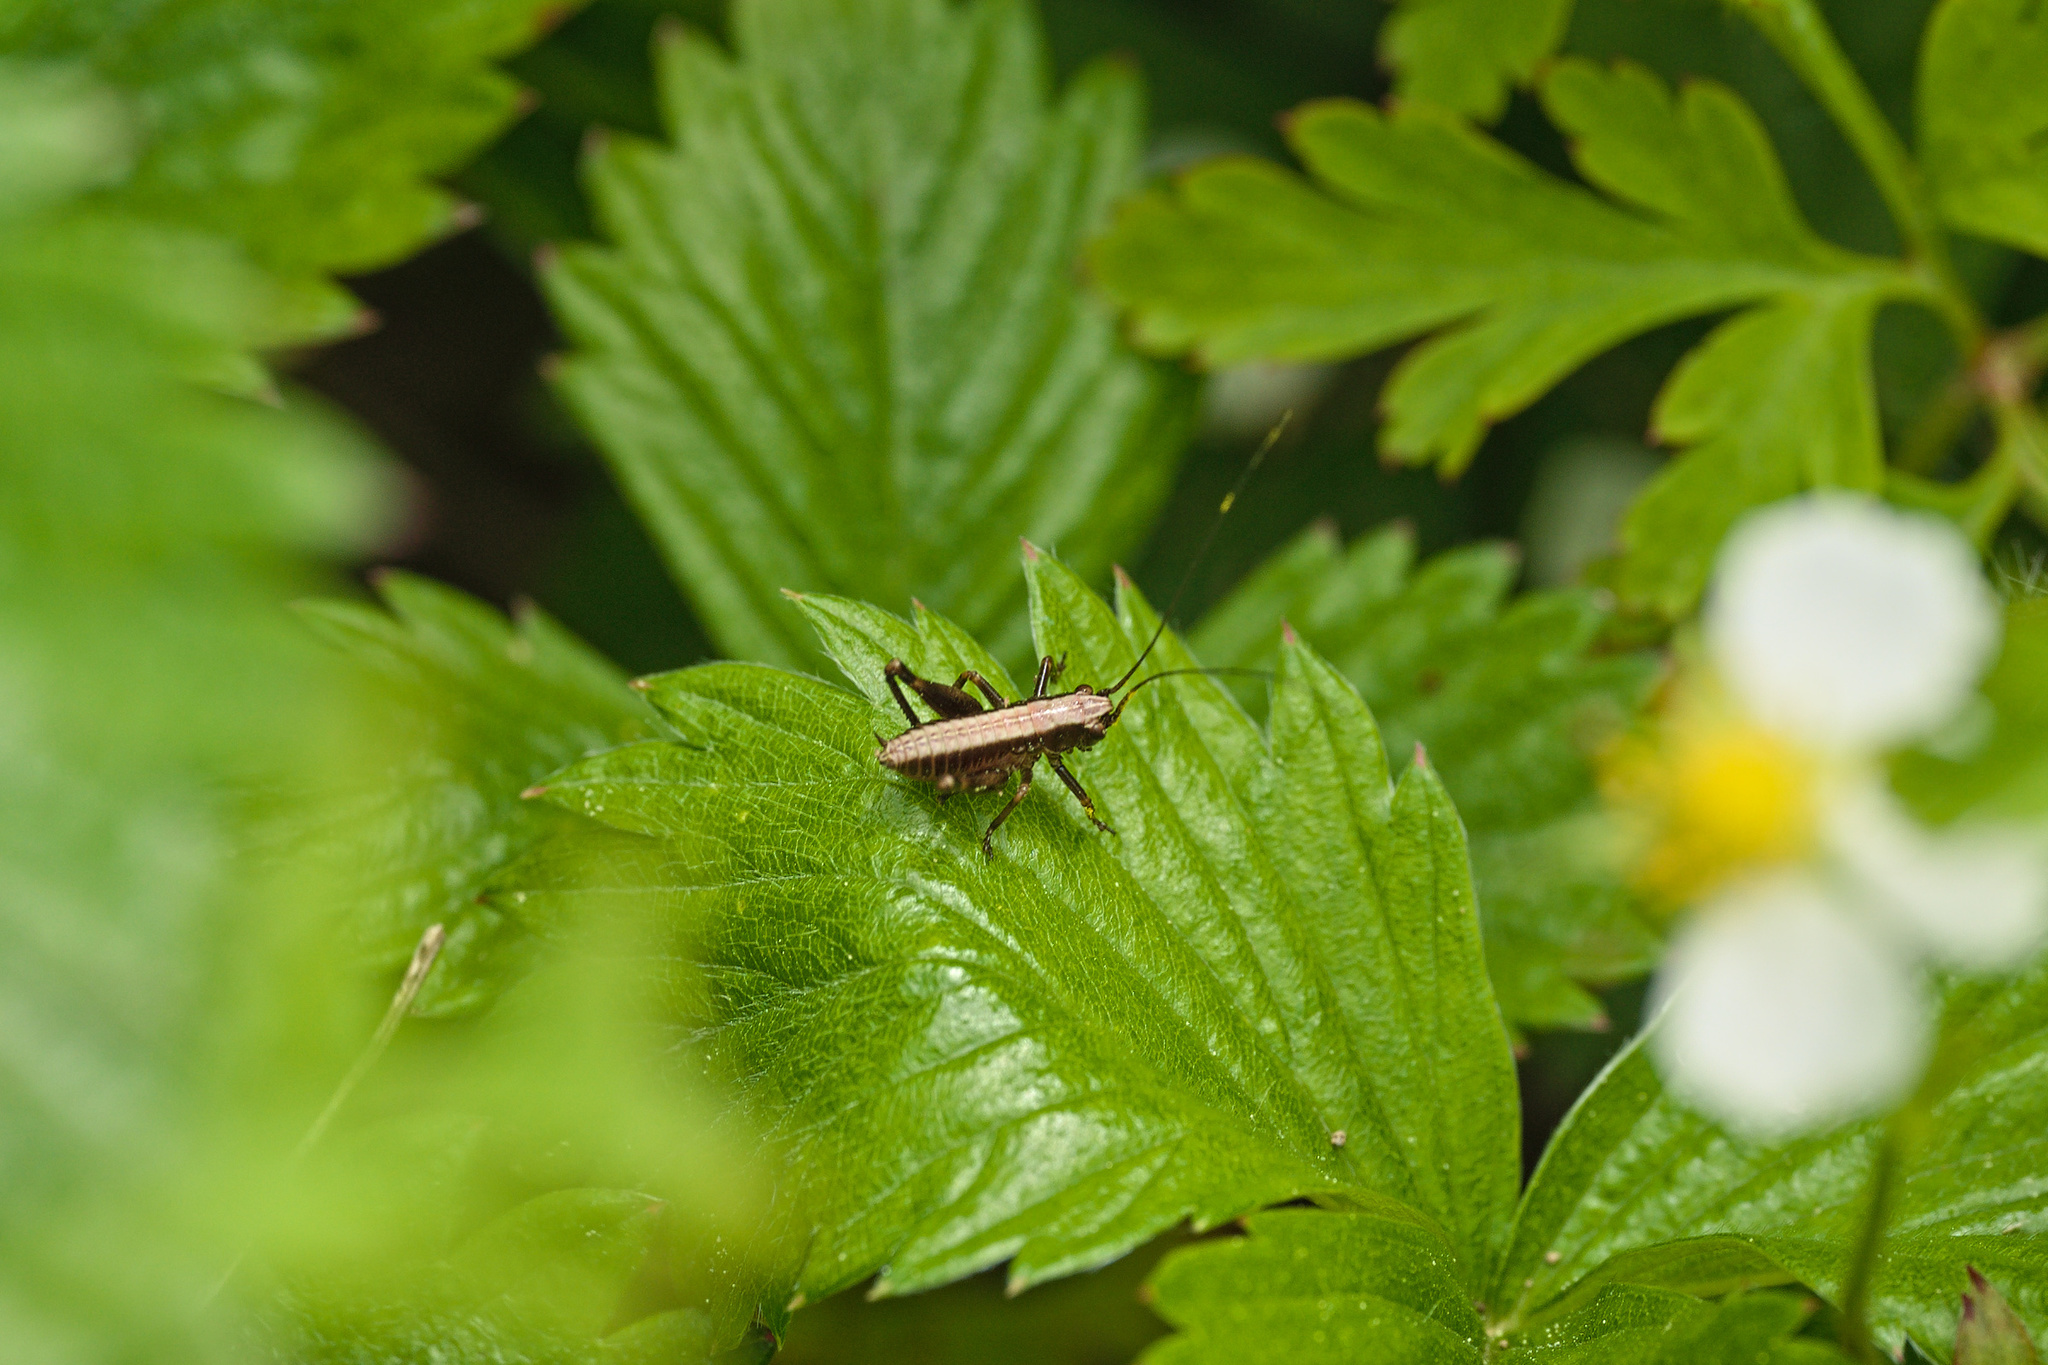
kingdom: Animalia
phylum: Arthropoda
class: Insecta
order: Orthoptera
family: Tettigoniidae
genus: Pholidoptera
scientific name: Pholidoptera griseoaptera
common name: Dark bush-cricket
